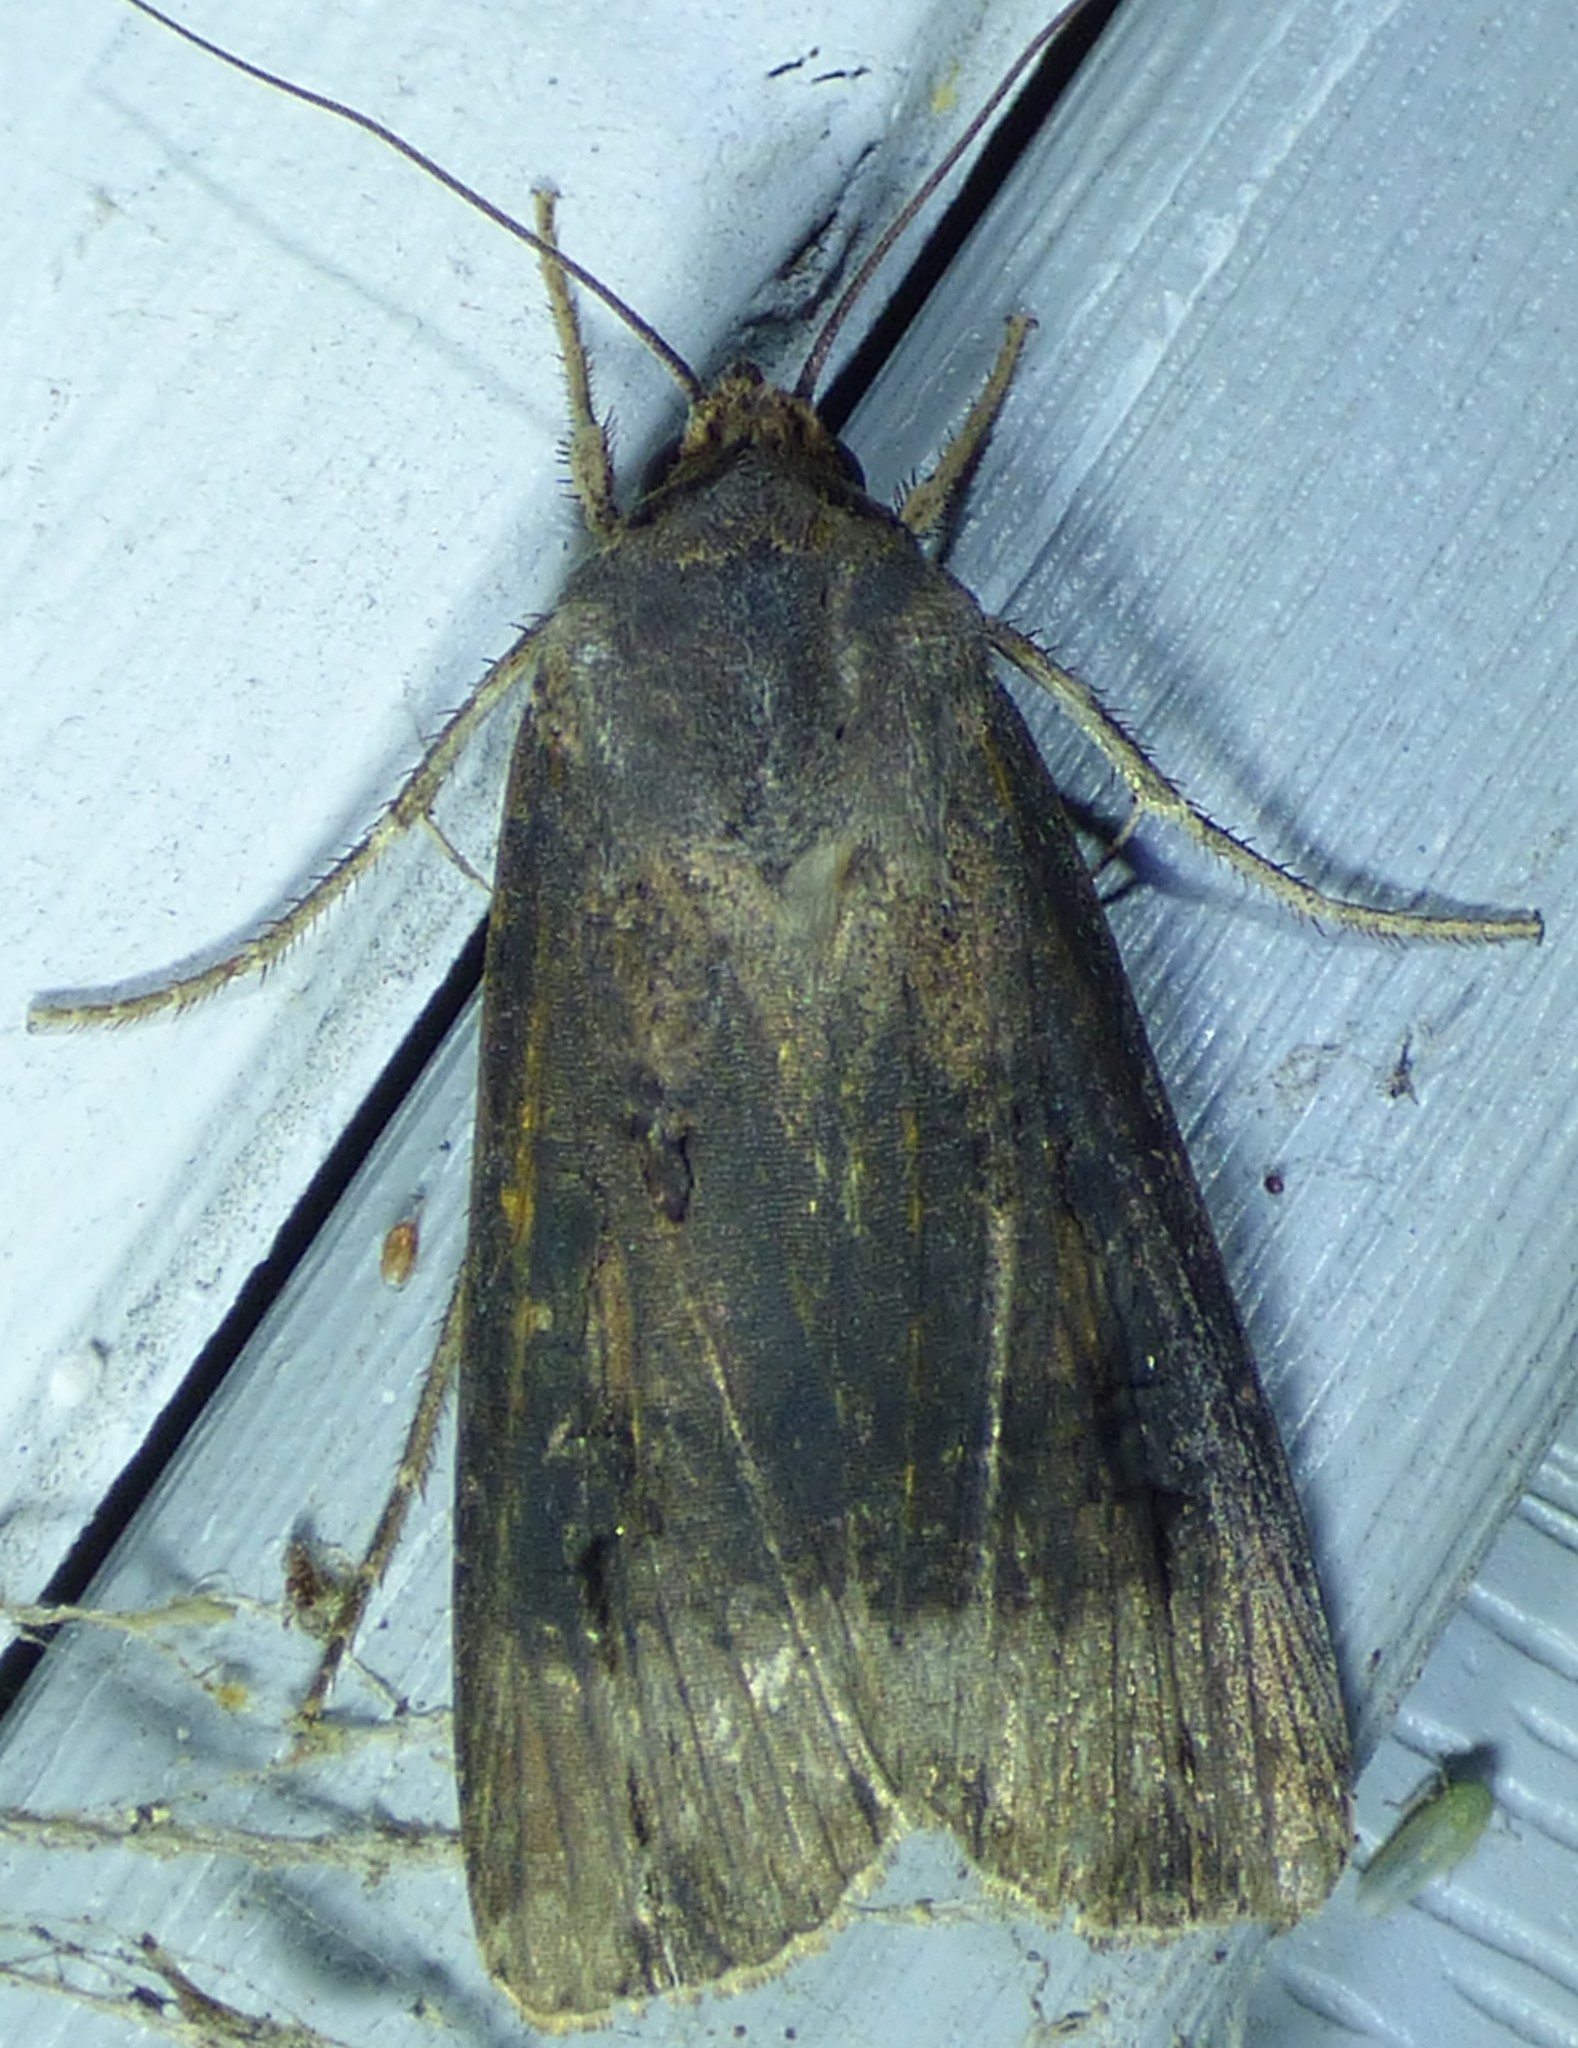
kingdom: Animalia
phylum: Arthropoda
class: Insecta
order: Lepidoptera
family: Noctuidae
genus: Agrotis
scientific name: Agrotis ipsilon
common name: Dark sword-grass
